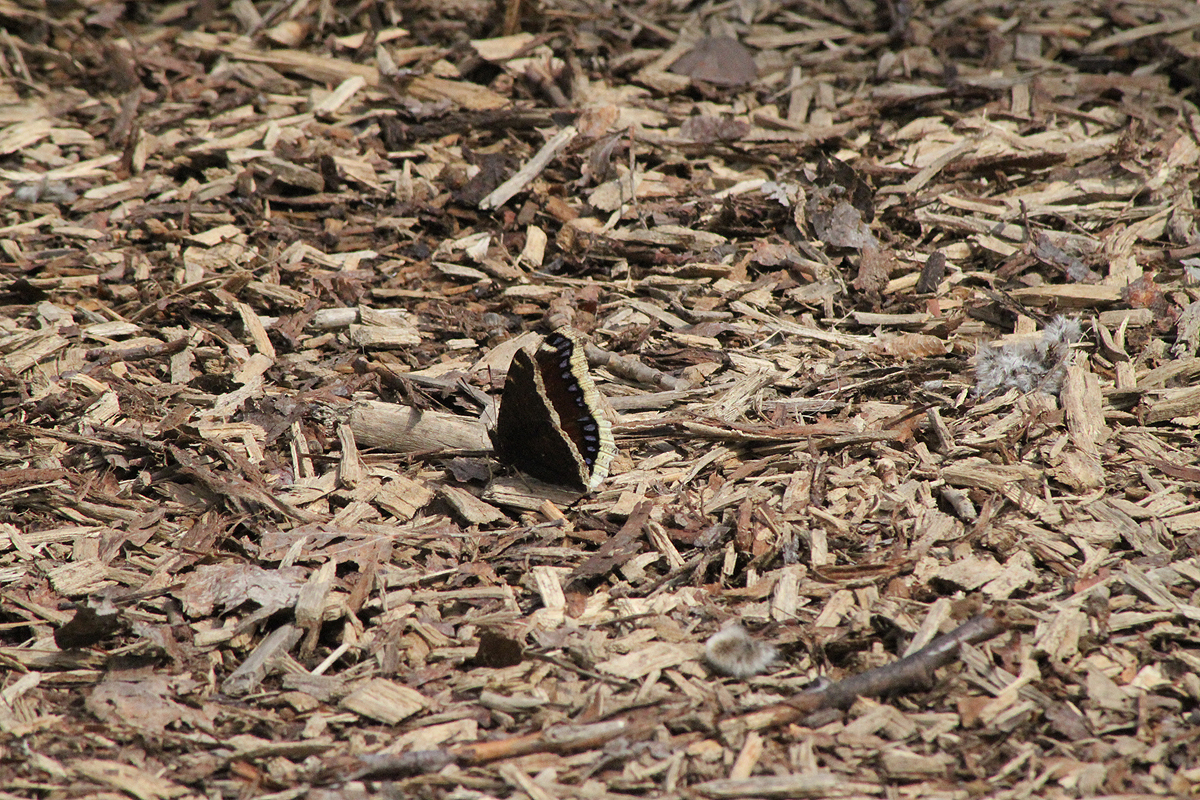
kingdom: Animalia
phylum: Arthropoda
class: Insecta
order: Lepidoptera
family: Nymphalidae
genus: Nymphalis
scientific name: Nymphalis antiopa
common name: Camberwell beauty
